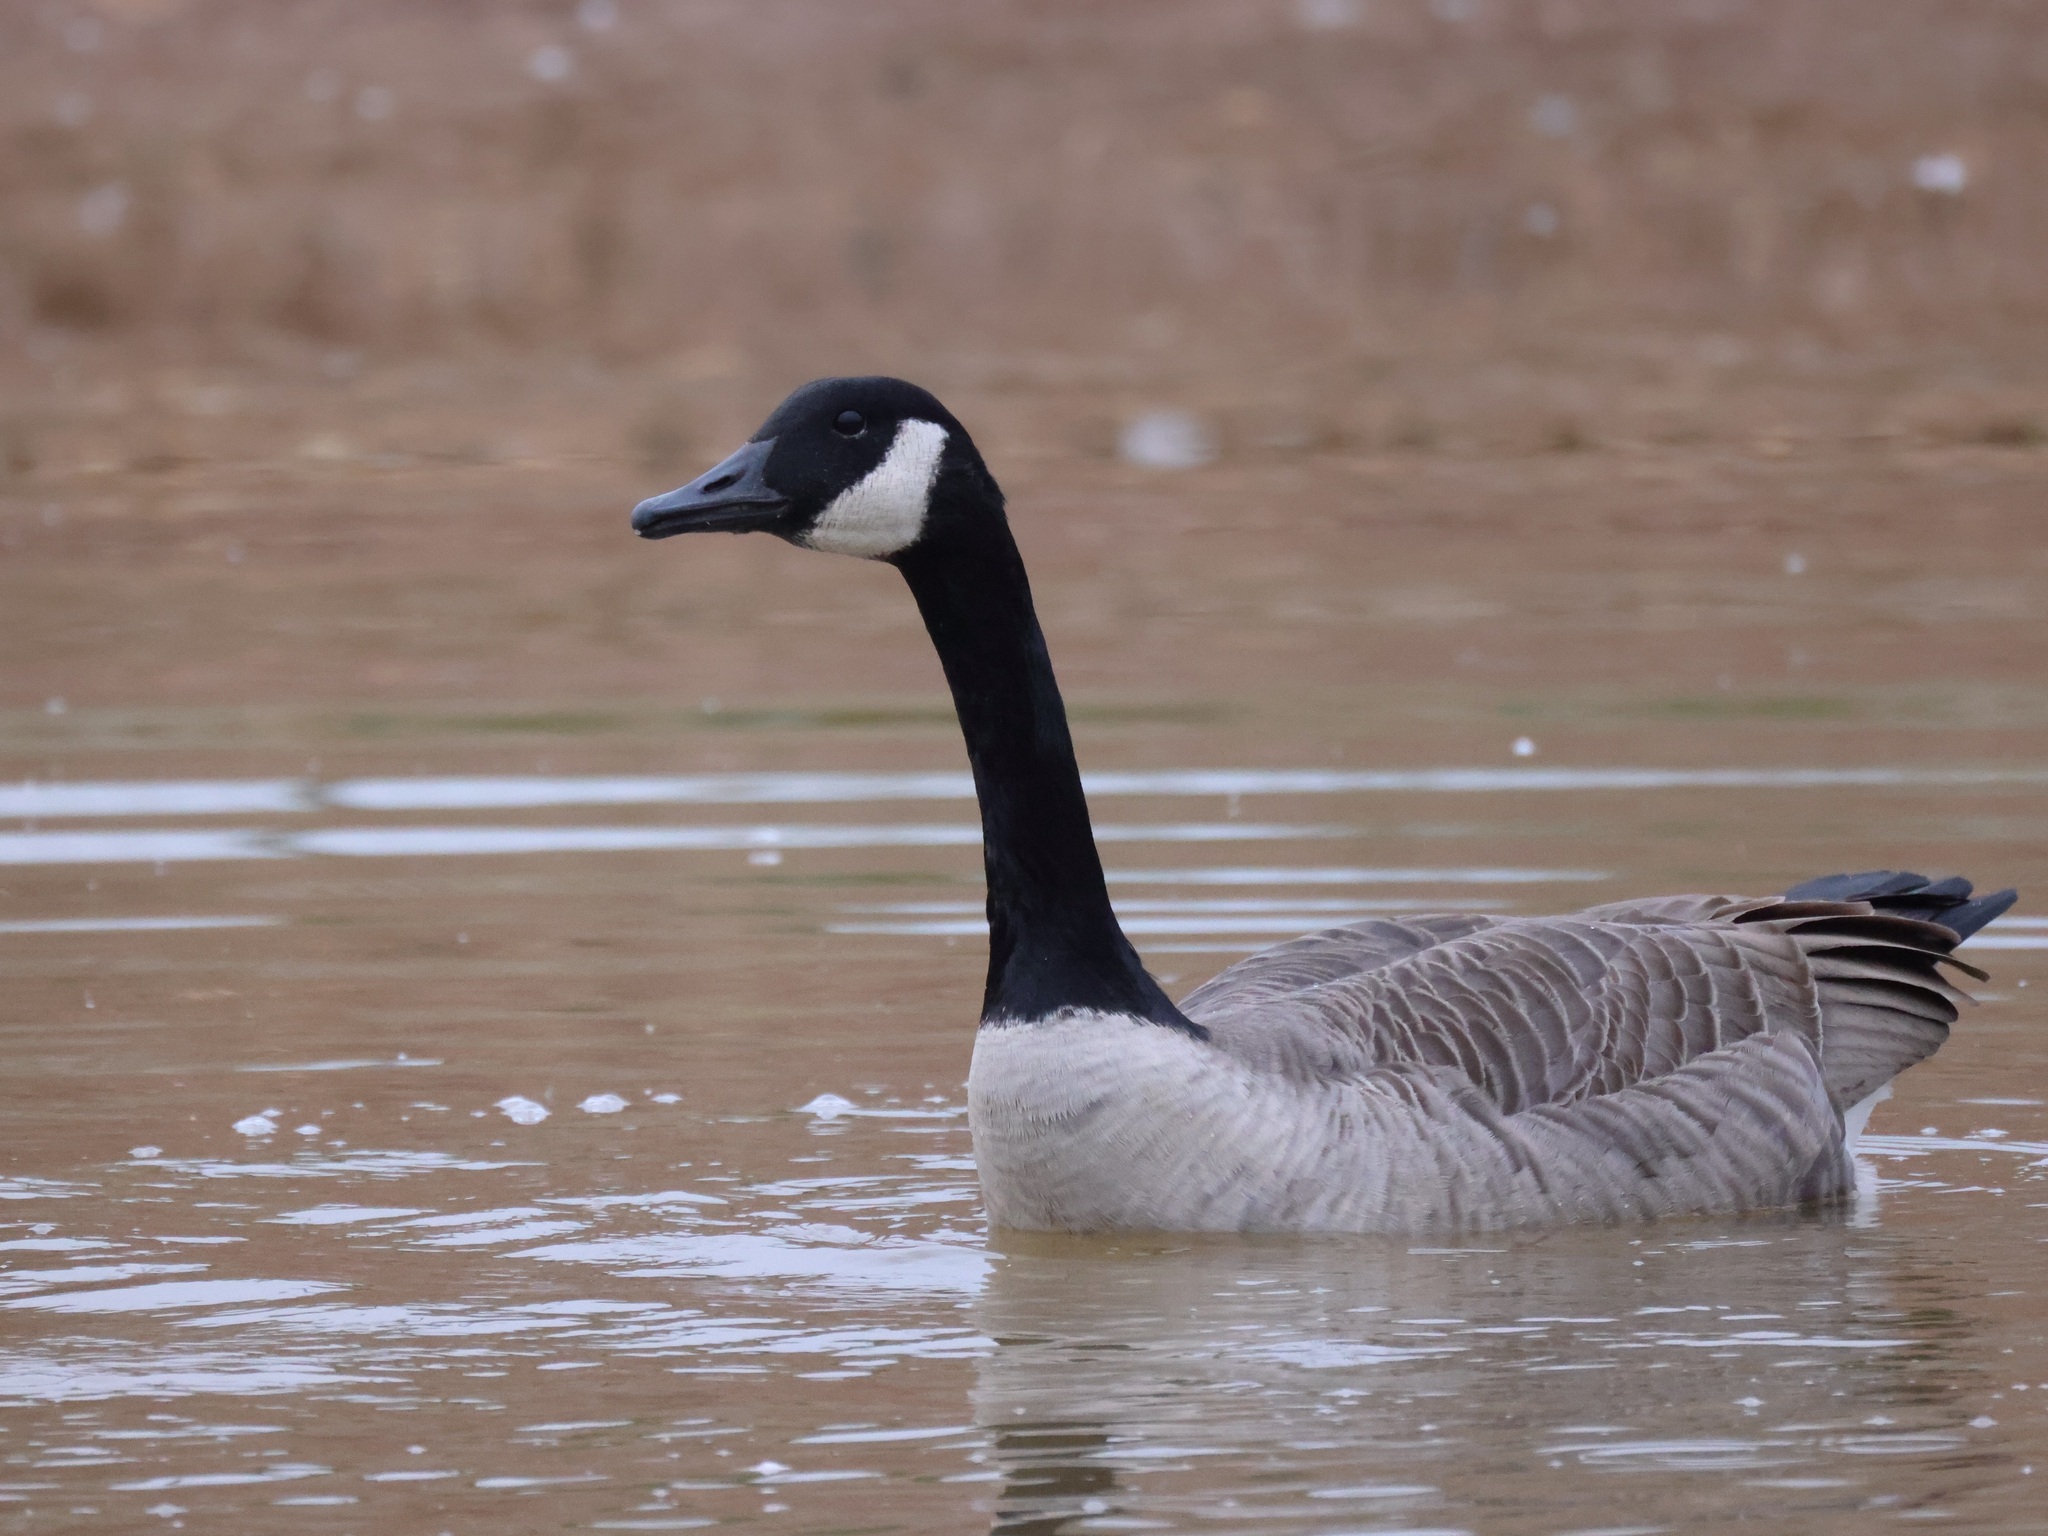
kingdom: Animalia
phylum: Chordata
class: Aves
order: Anseriformes
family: Anatidae
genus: Branta
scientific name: Branta canadensis
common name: Canada goose
